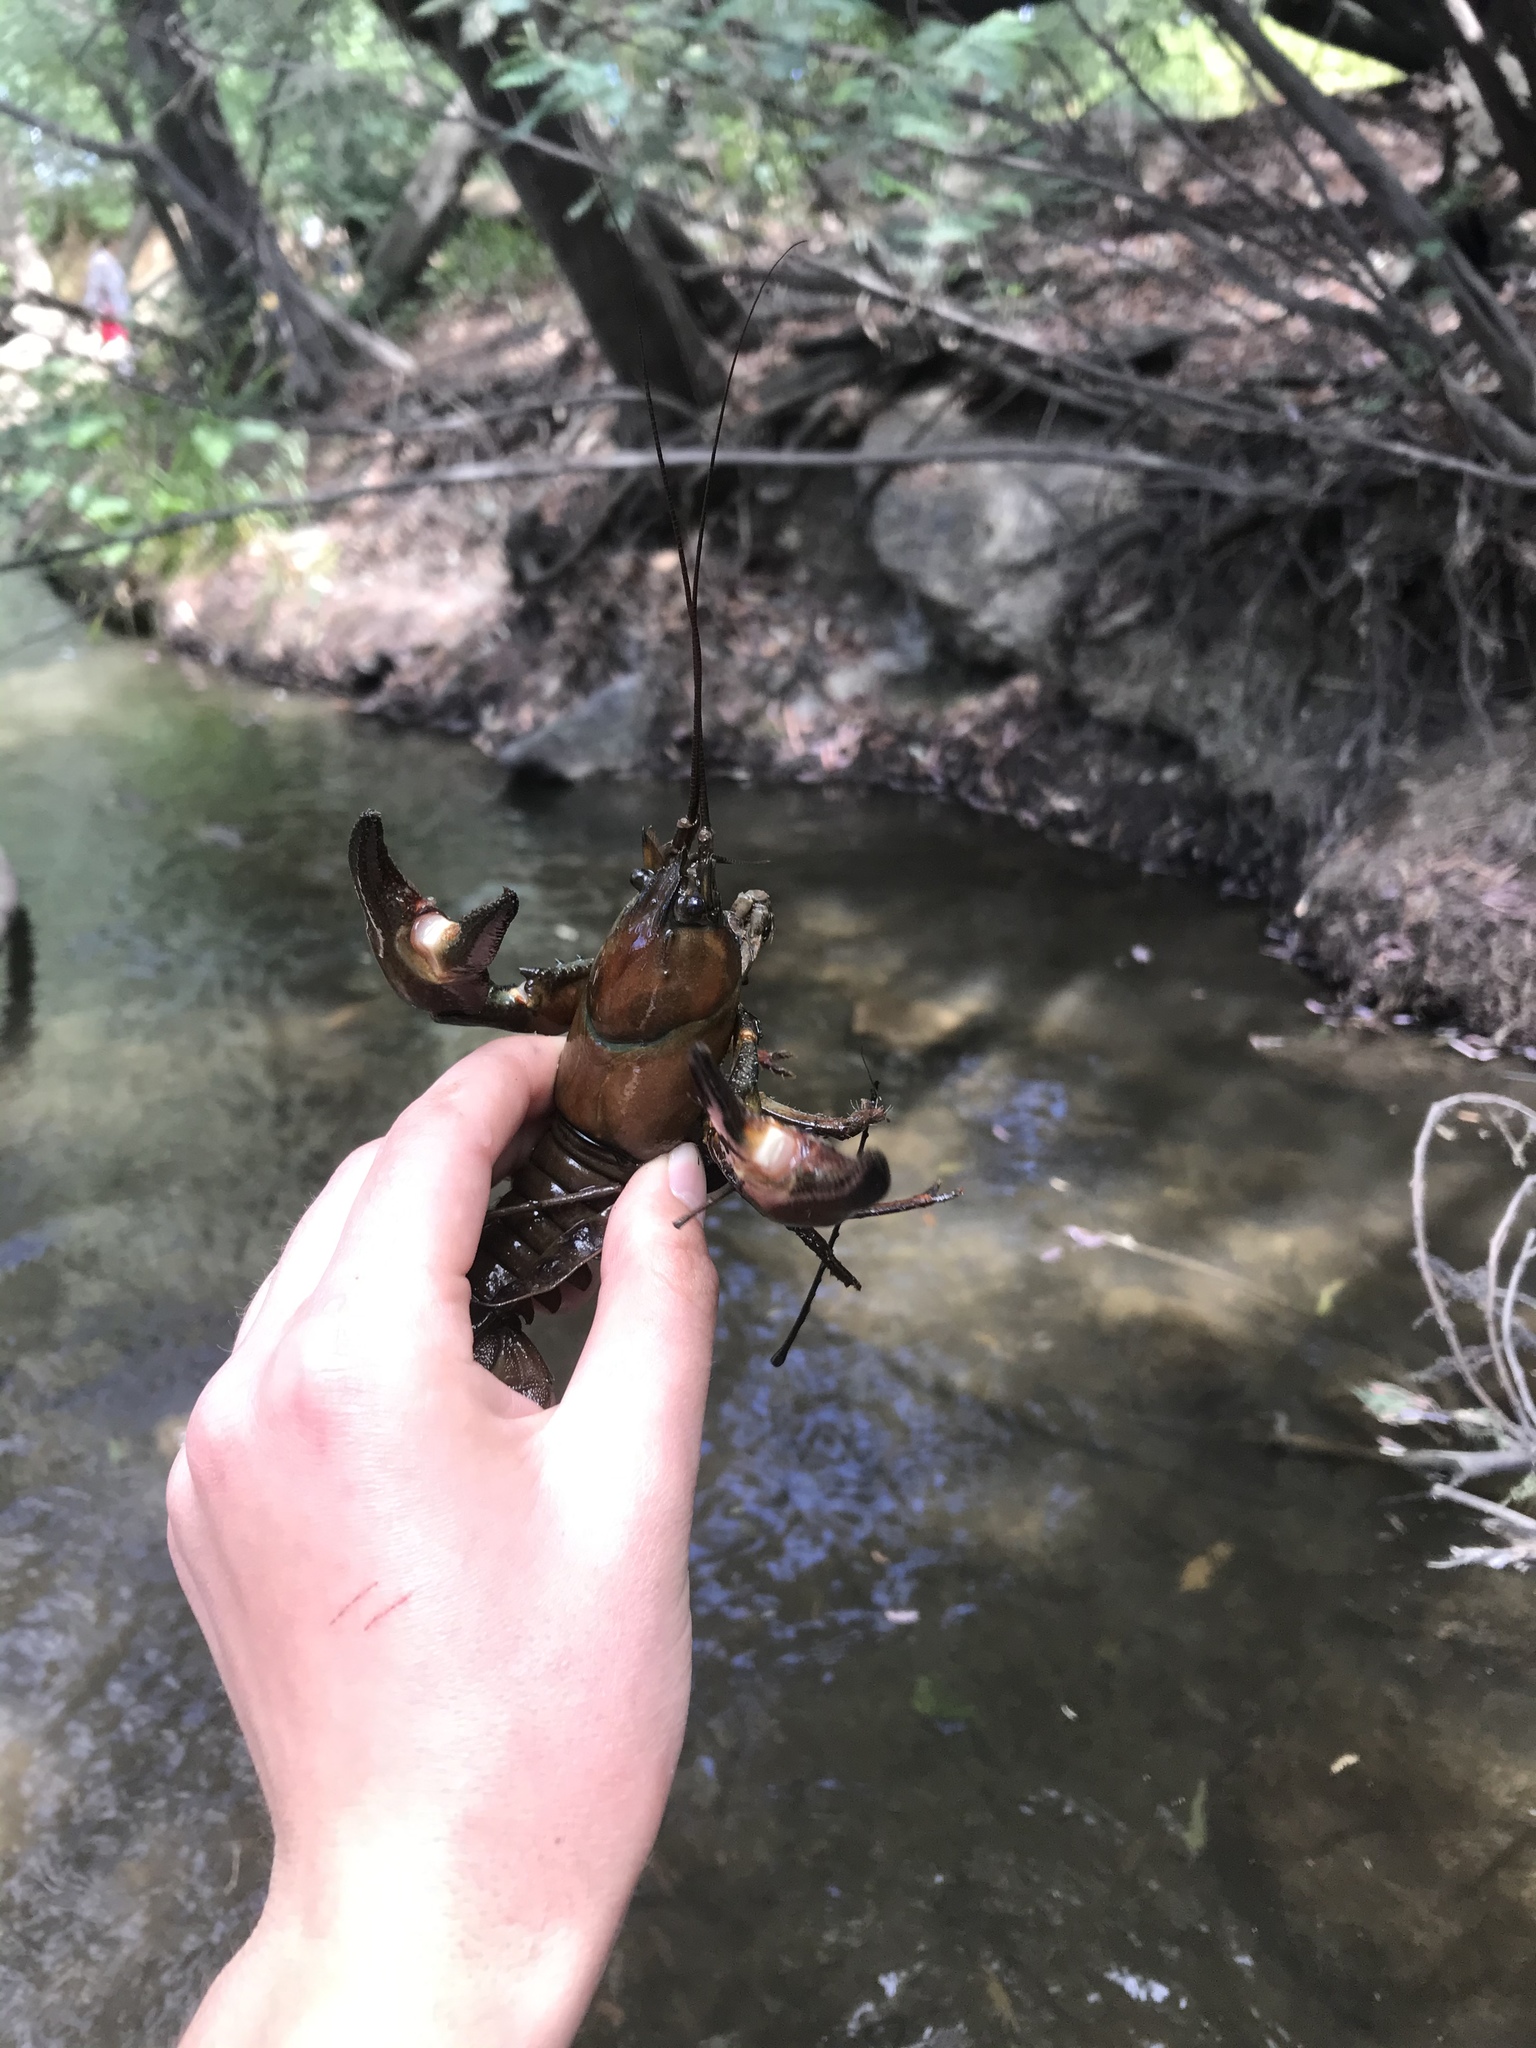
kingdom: Animalia
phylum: Arthropoda
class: Malacostraca
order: Decapoda
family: Astacidae
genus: Pacifastacus
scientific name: Pacifastacus leniusculus
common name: Signal crayfish
